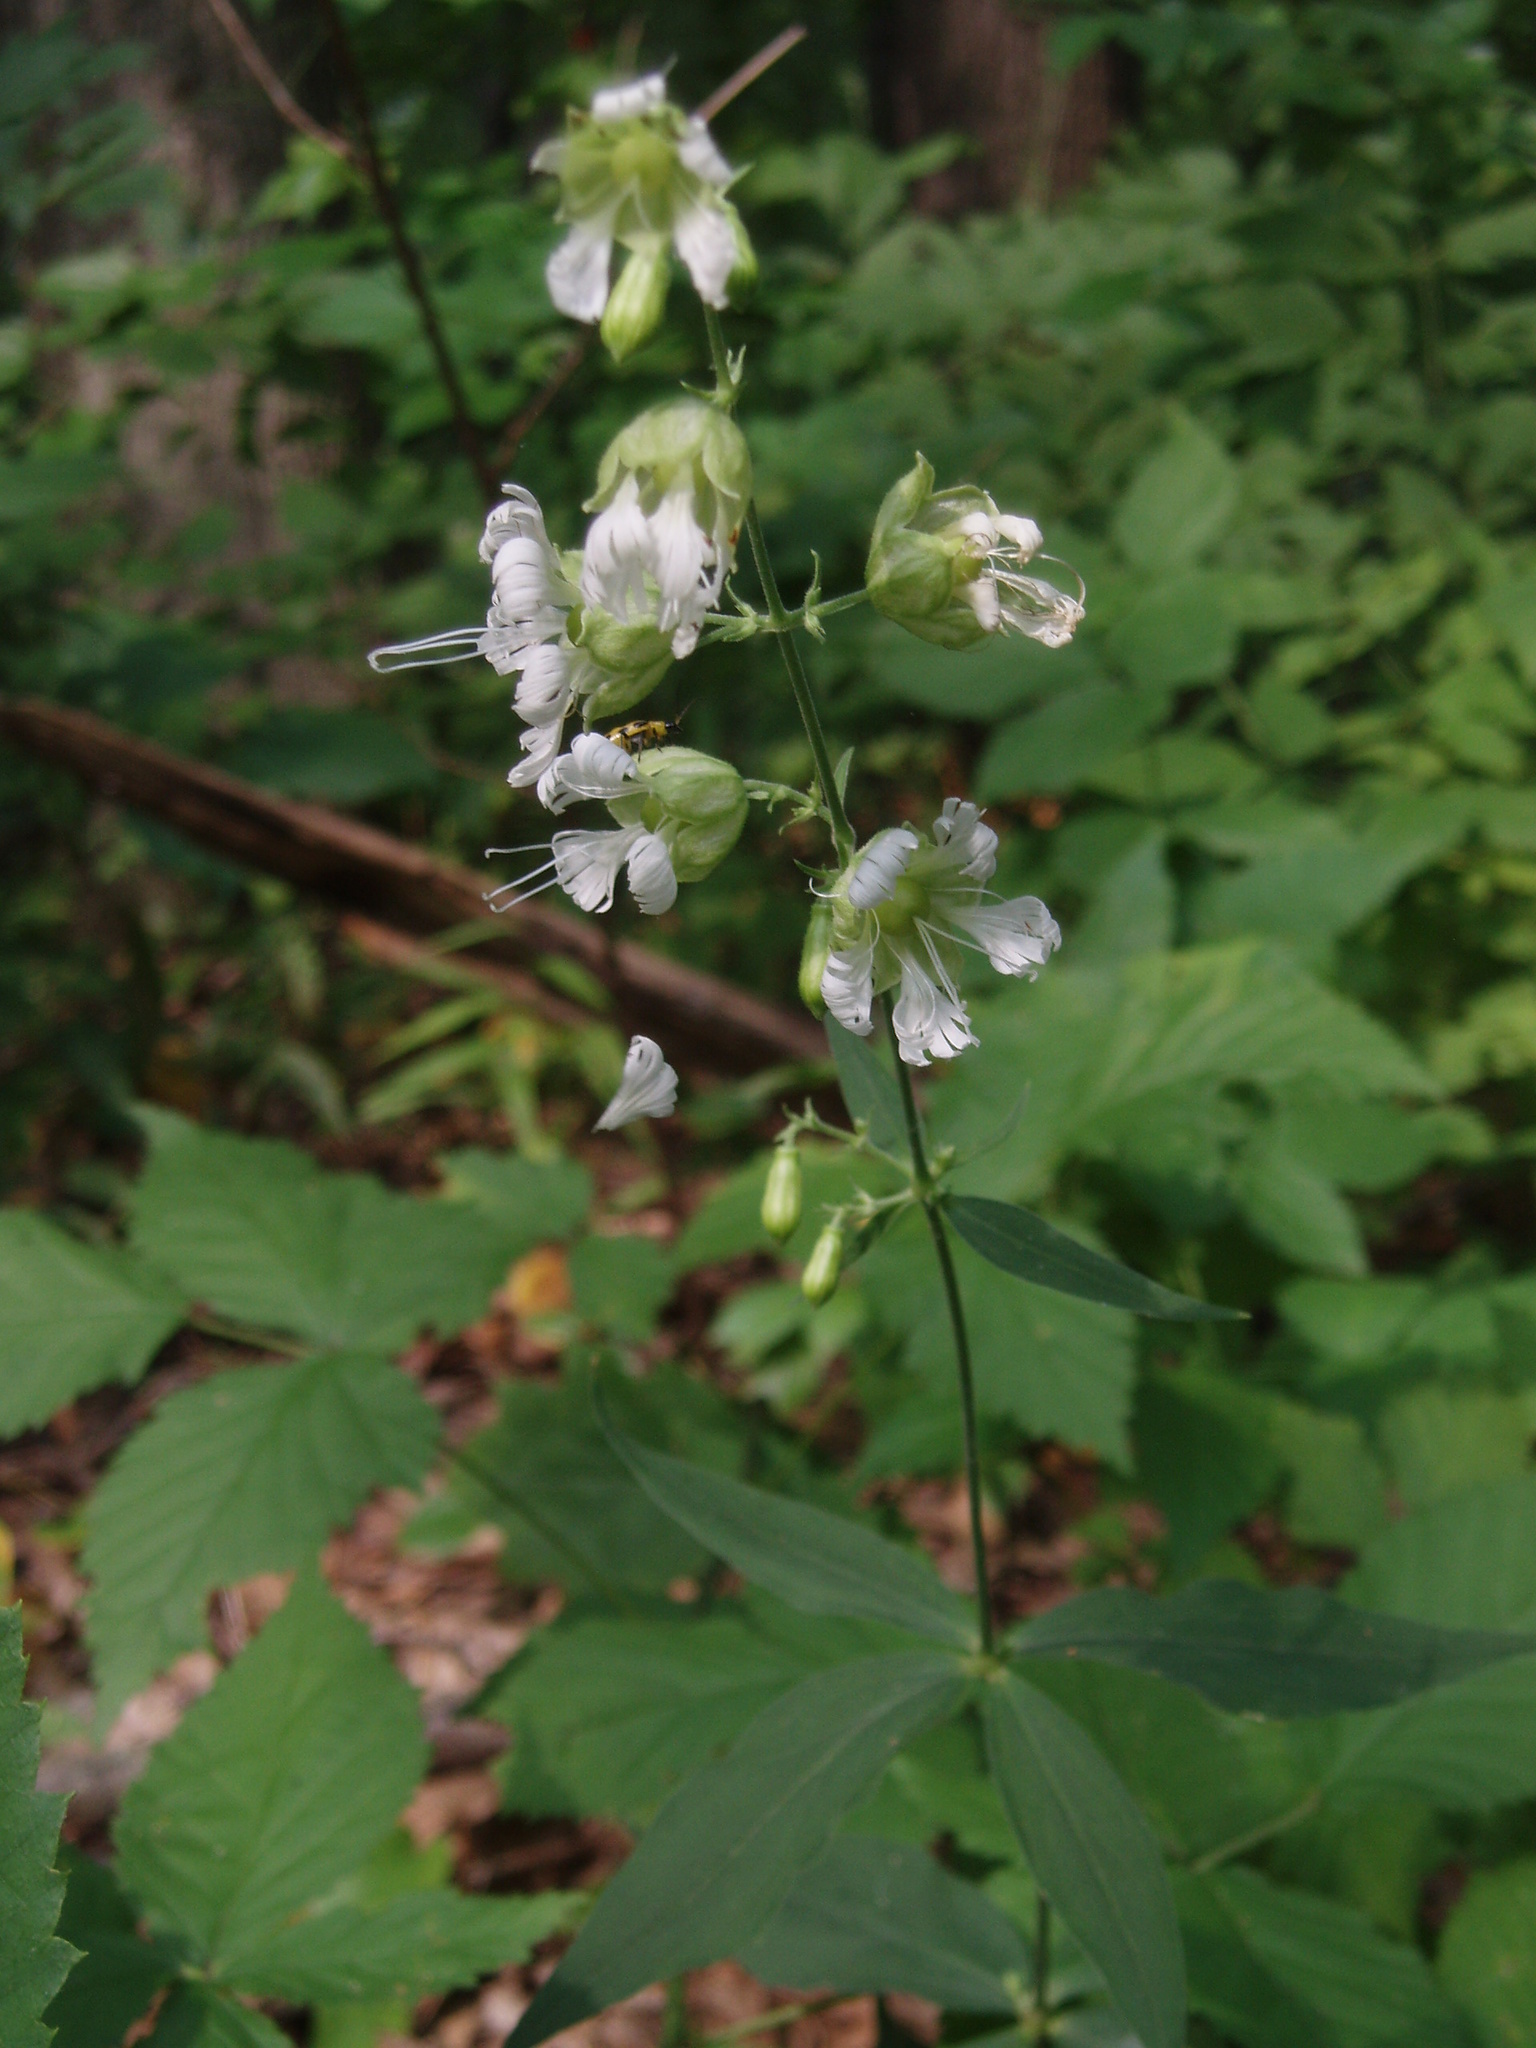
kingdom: Plantae
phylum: Tracheophyta
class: Magnoliopsida
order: Caryophyllales
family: Caryophyllaceae
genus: Silene
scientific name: Silene stellata
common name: Starry campion
